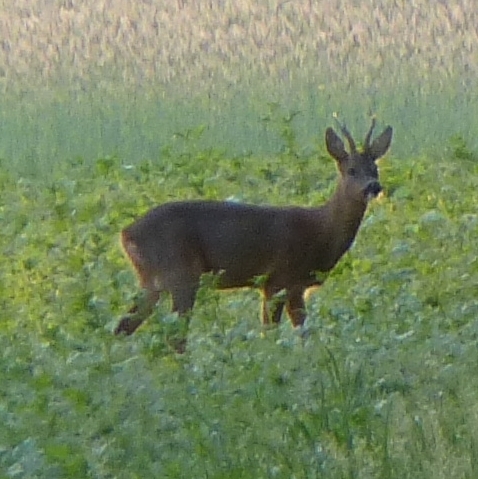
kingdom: Animalia
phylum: Chordata
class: Mammalia
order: Artiodactyla
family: Cervidae
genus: Capreolus
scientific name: Capreolus capreolus
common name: Western roe deer
